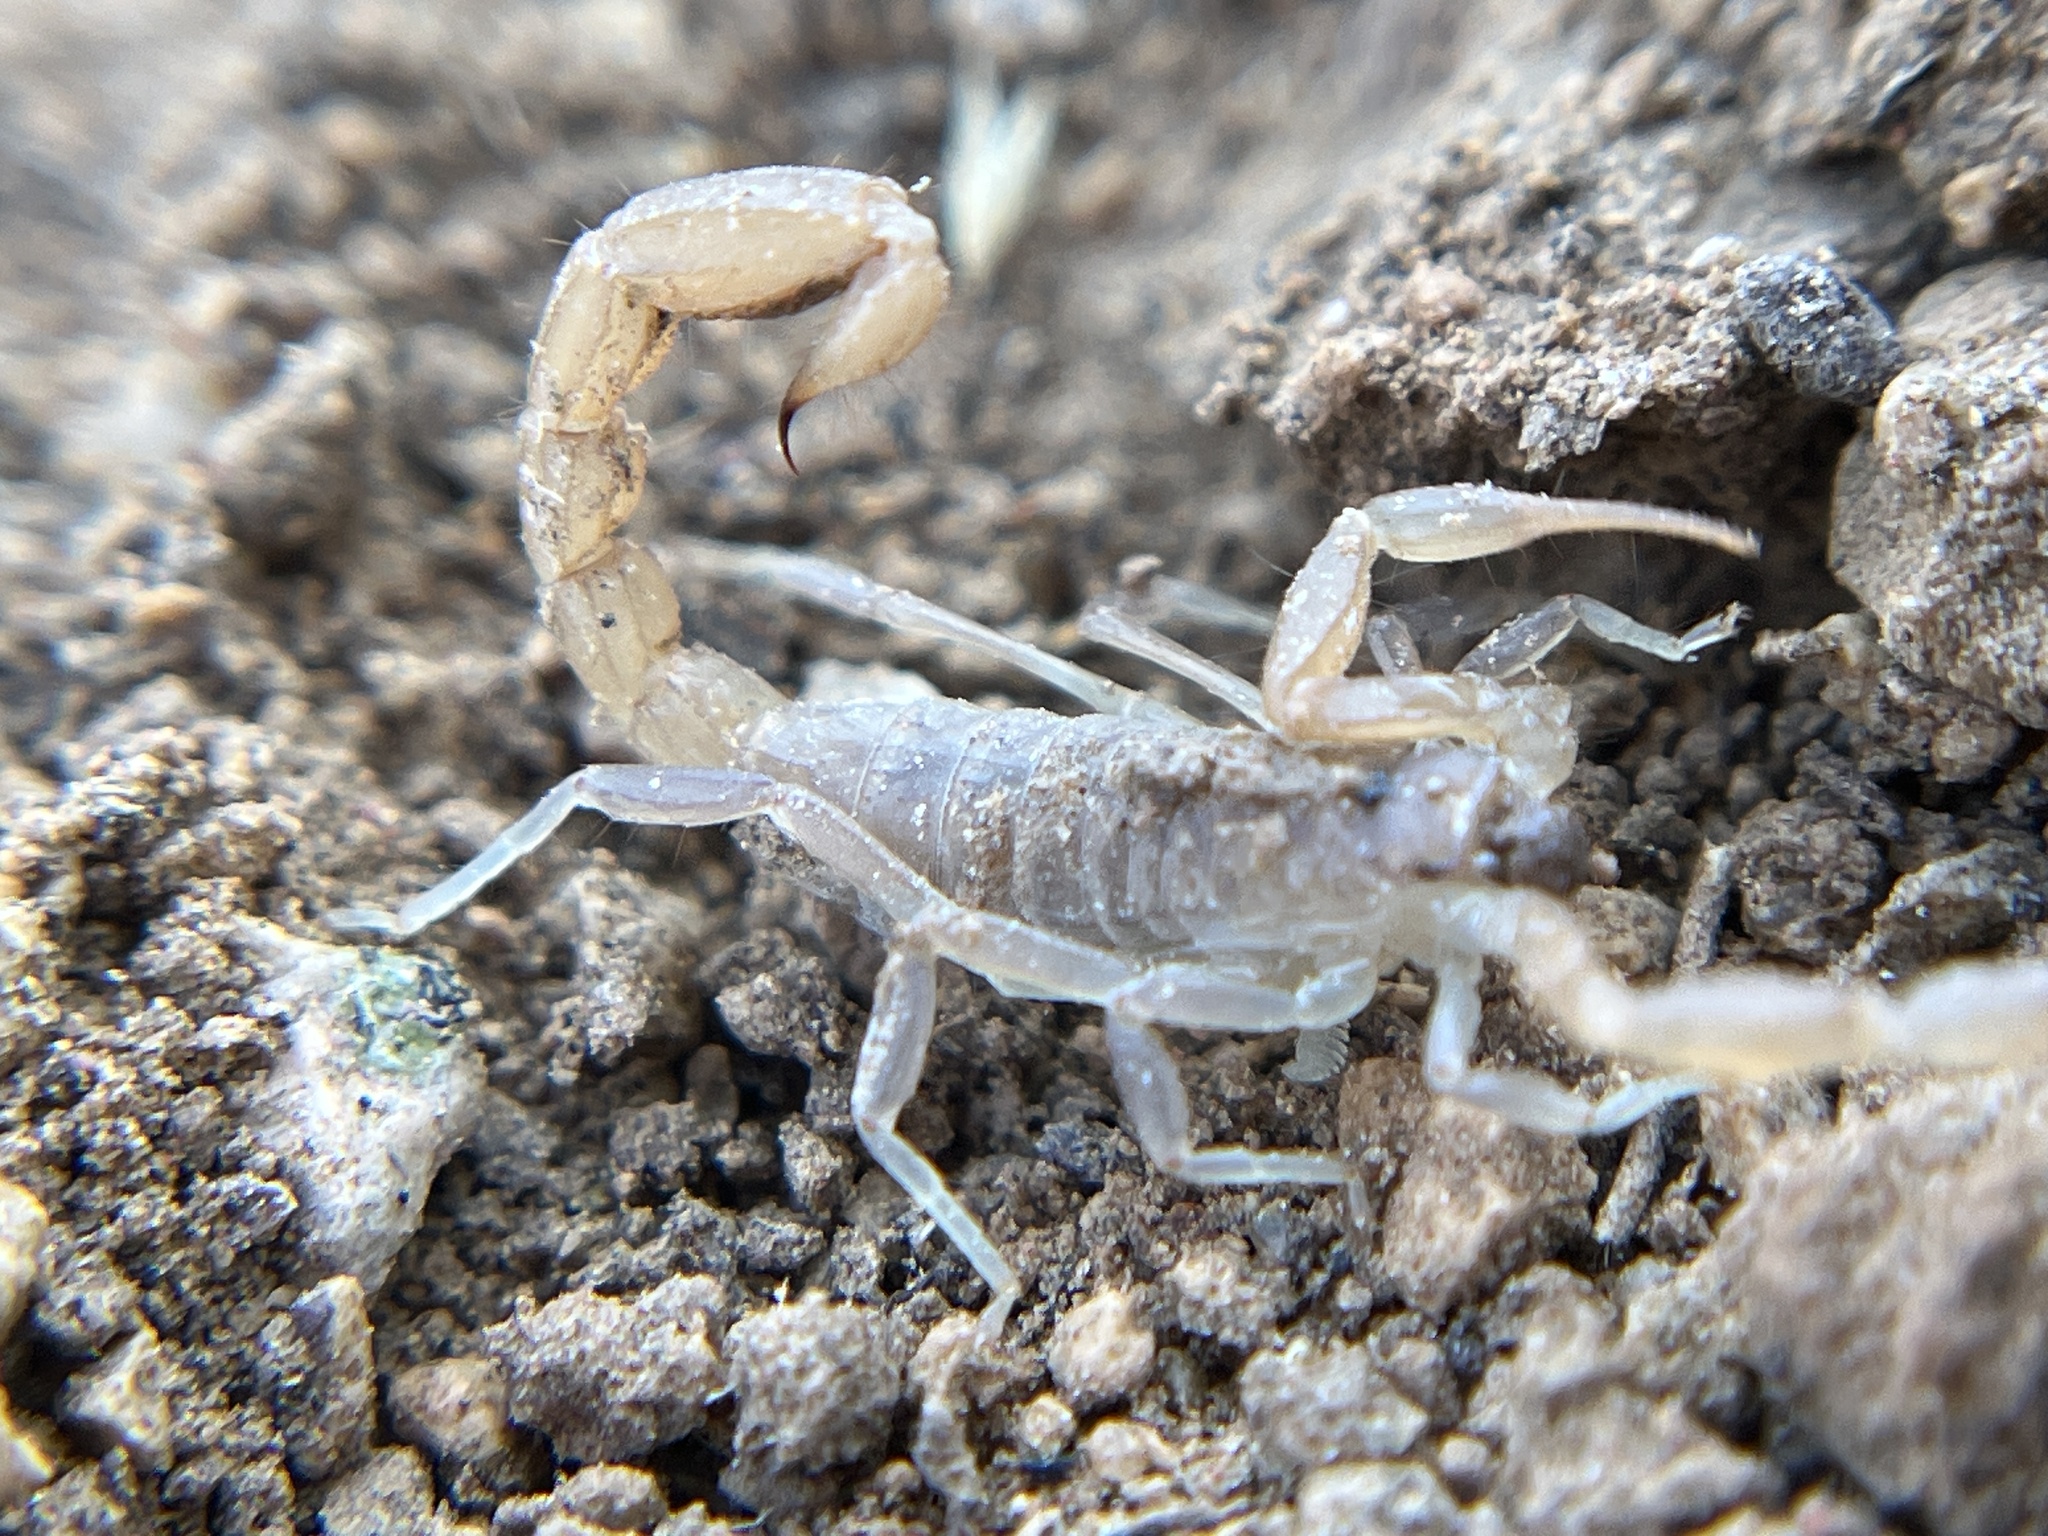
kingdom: Animalia
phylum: Arthropoda
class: Arachnida
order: Scorpiones
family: Vaejovidae
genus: Paravaejovis
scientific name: Paravaejovis confusus
